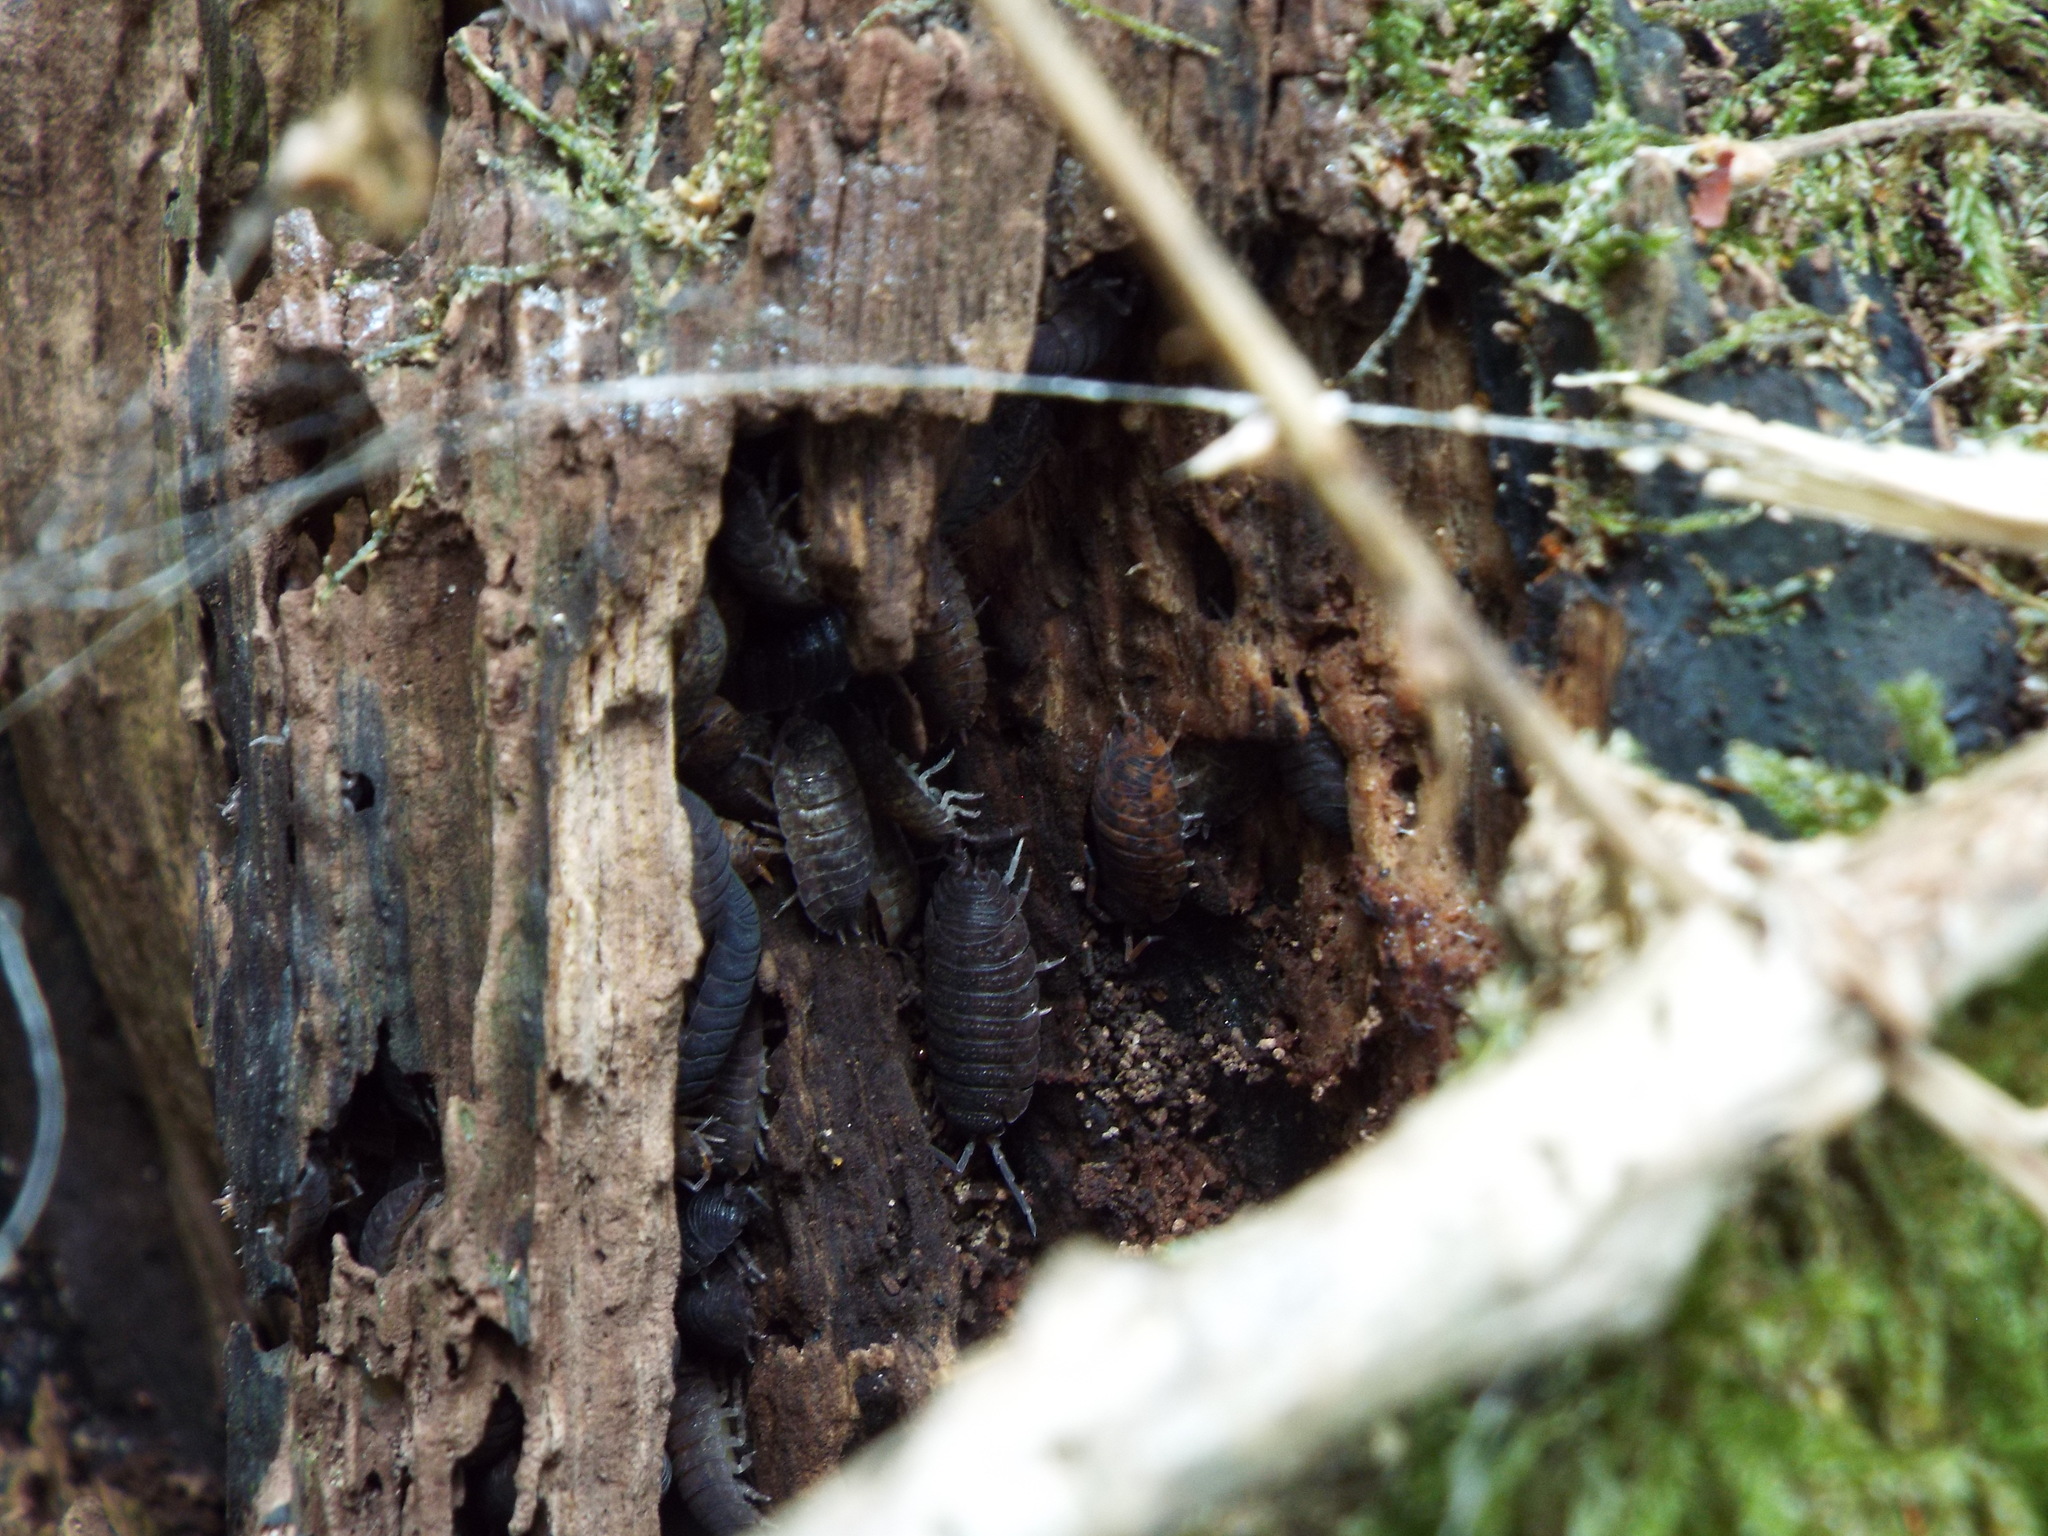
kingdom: Animalia
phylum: Arthropoda
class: Malacostraca
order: Isopoda
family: Porcellionidae
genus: Porcellio
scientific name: Porcellio scaber
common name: Common rough woodlouse
